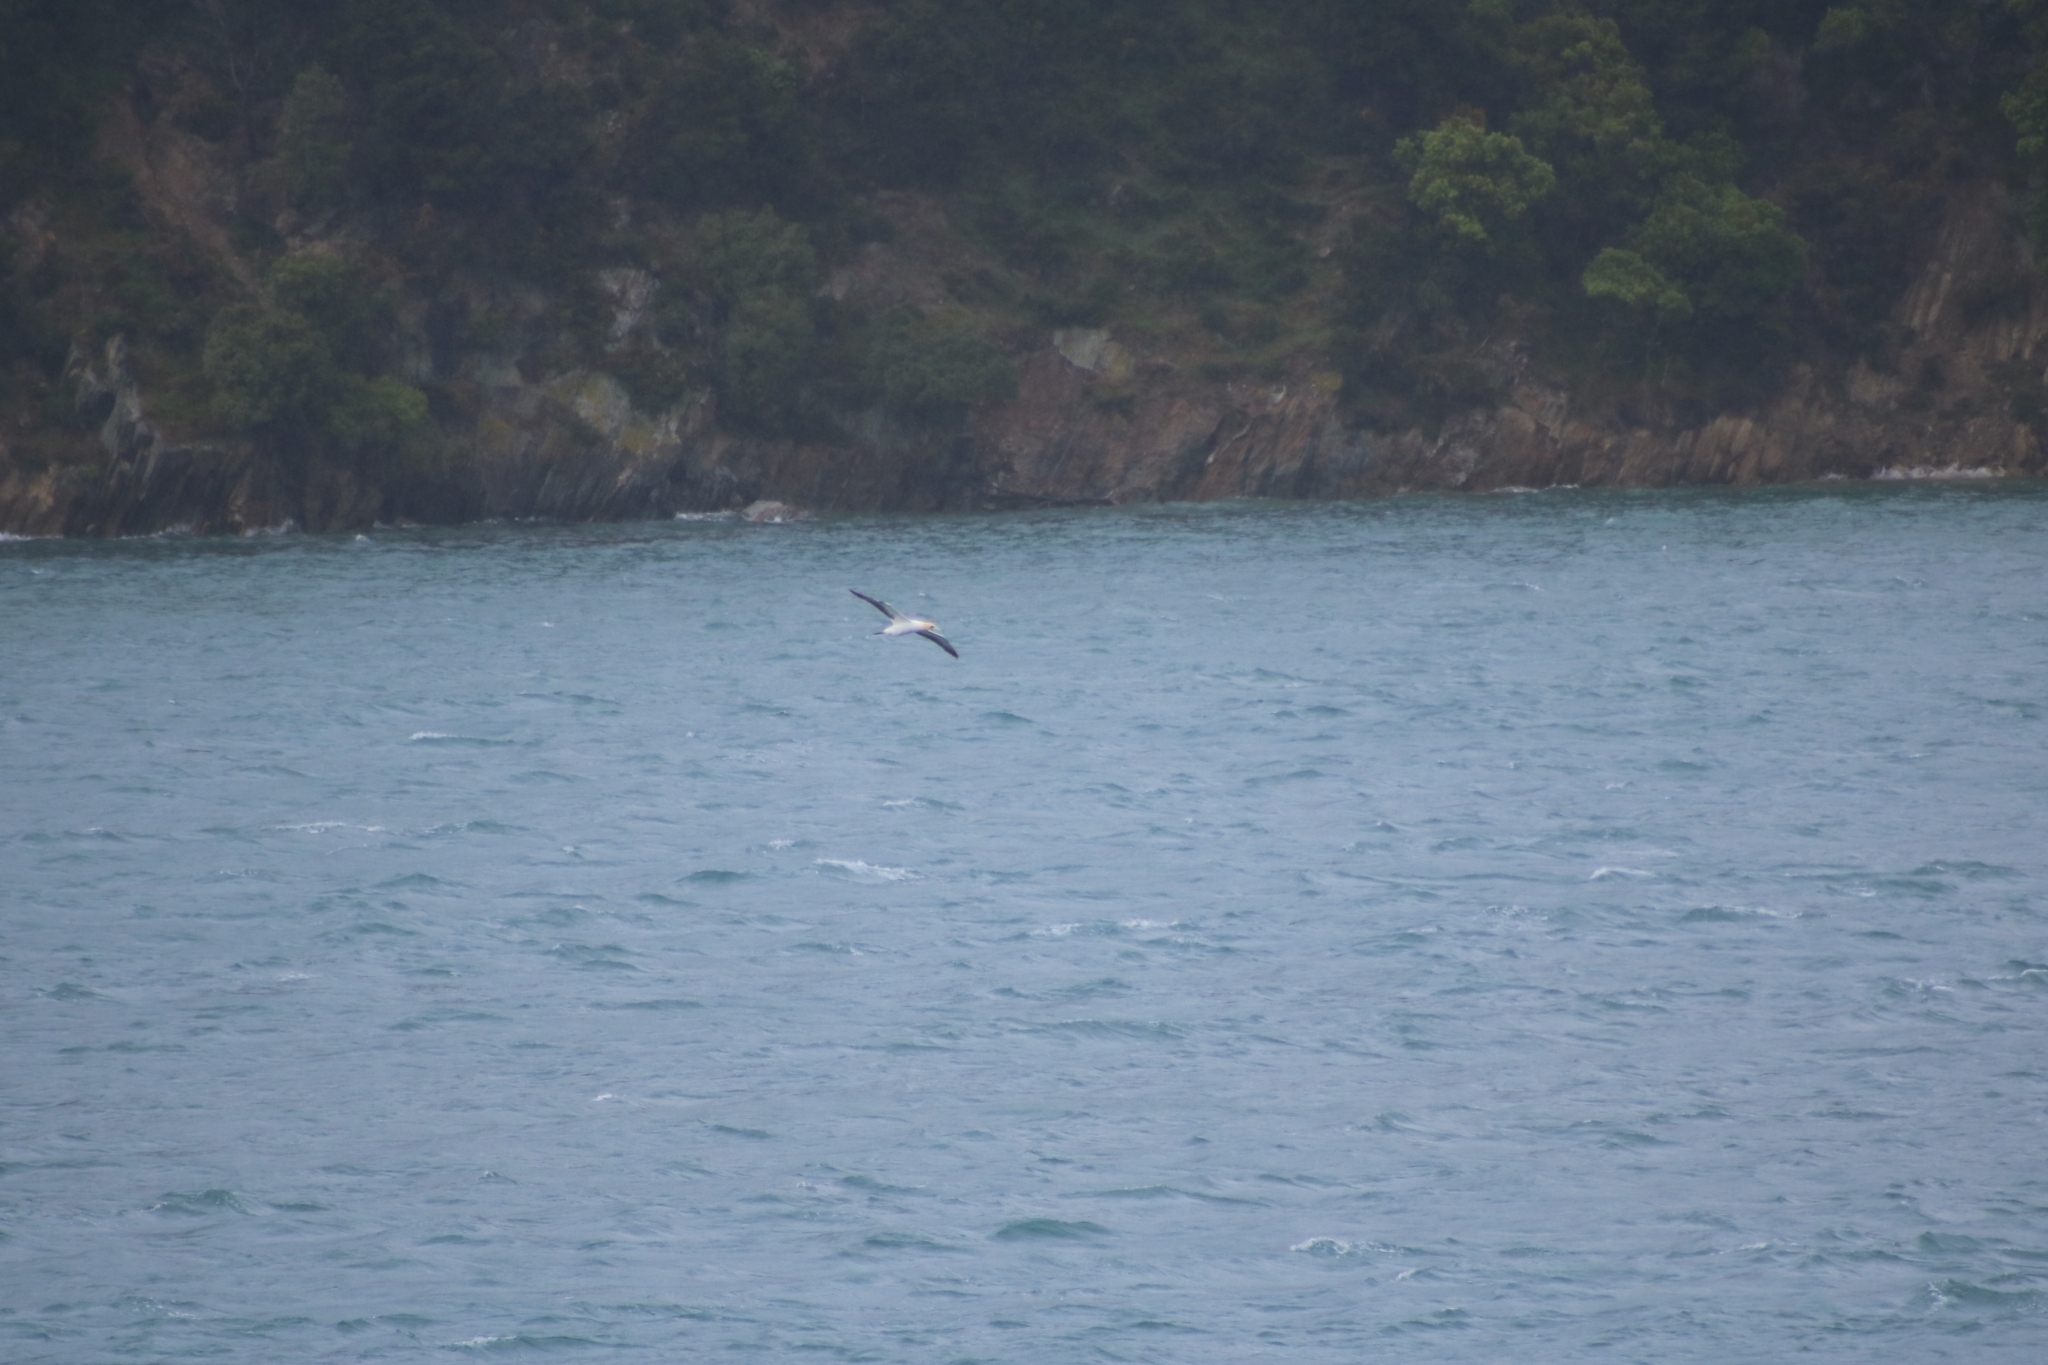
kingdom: Animalia
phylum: Chordata
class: Aves
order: Suliformes
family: Sulidae
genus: Morus
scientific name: Morus serrator
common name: Australasian gannet
